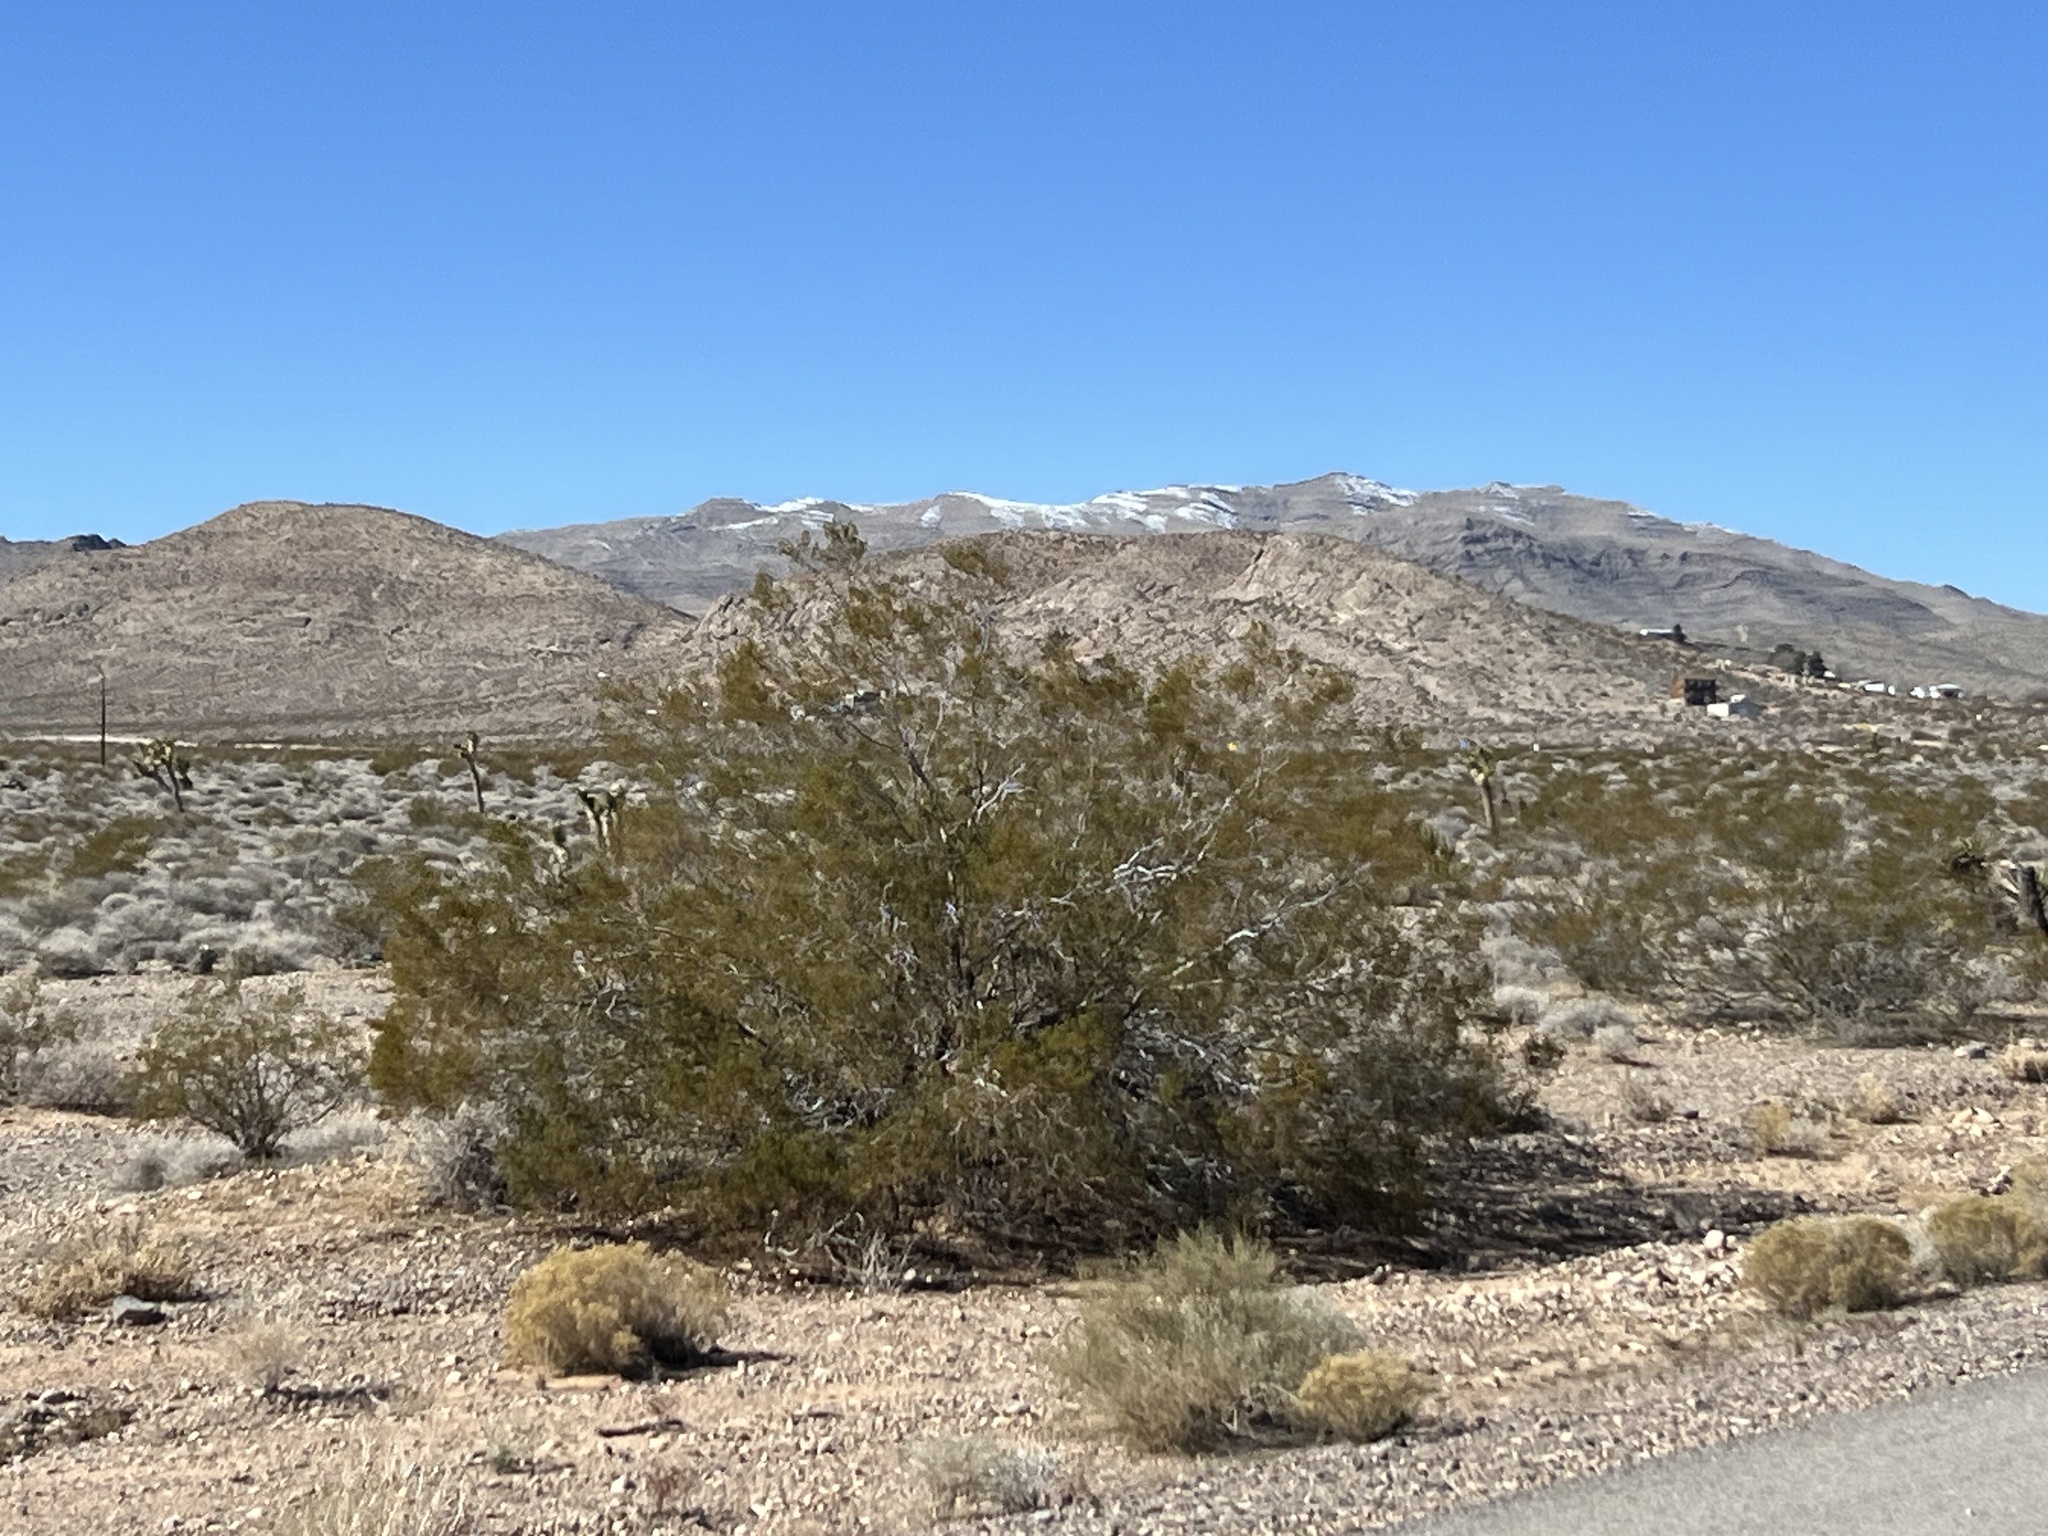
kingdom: Plantae
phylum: Tracheophyta
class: Magnoliopsida
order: Zygophyllales
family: Zygophyllaceae
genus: Larrea
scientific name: Larrea tridentata
